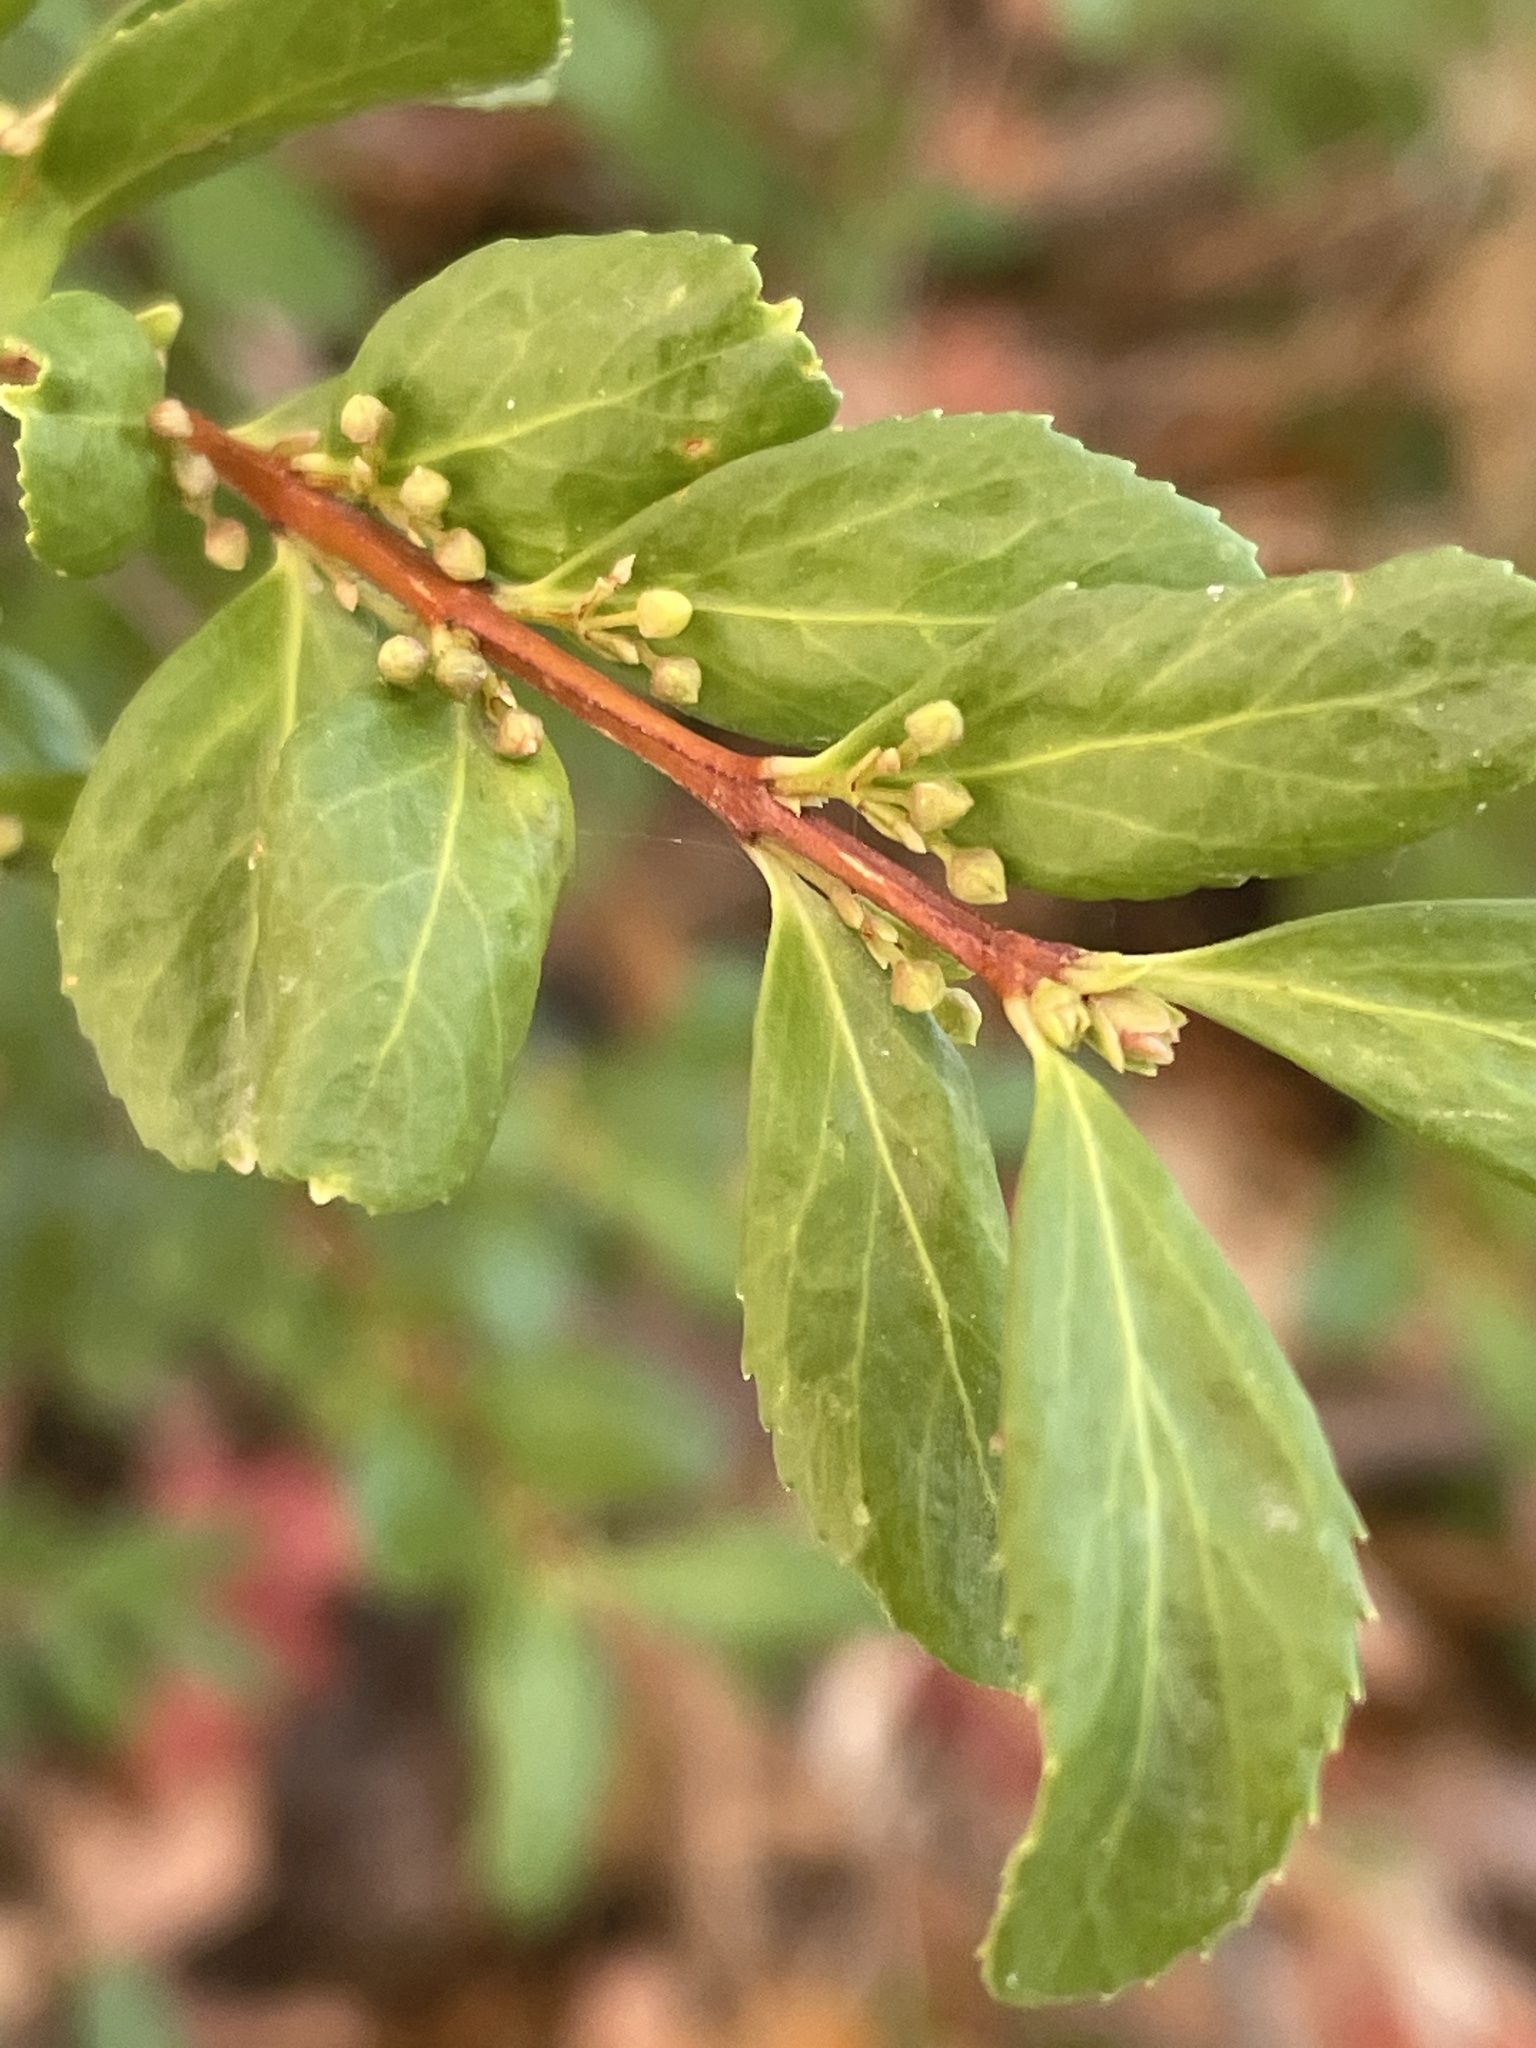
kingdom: Plantae
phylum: Tracheophyta
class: Magnoliopsida
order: Celastrales
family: Celastraceae
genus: Paxistima
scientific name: Paxistima myrsinites
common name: Mountain-lover
